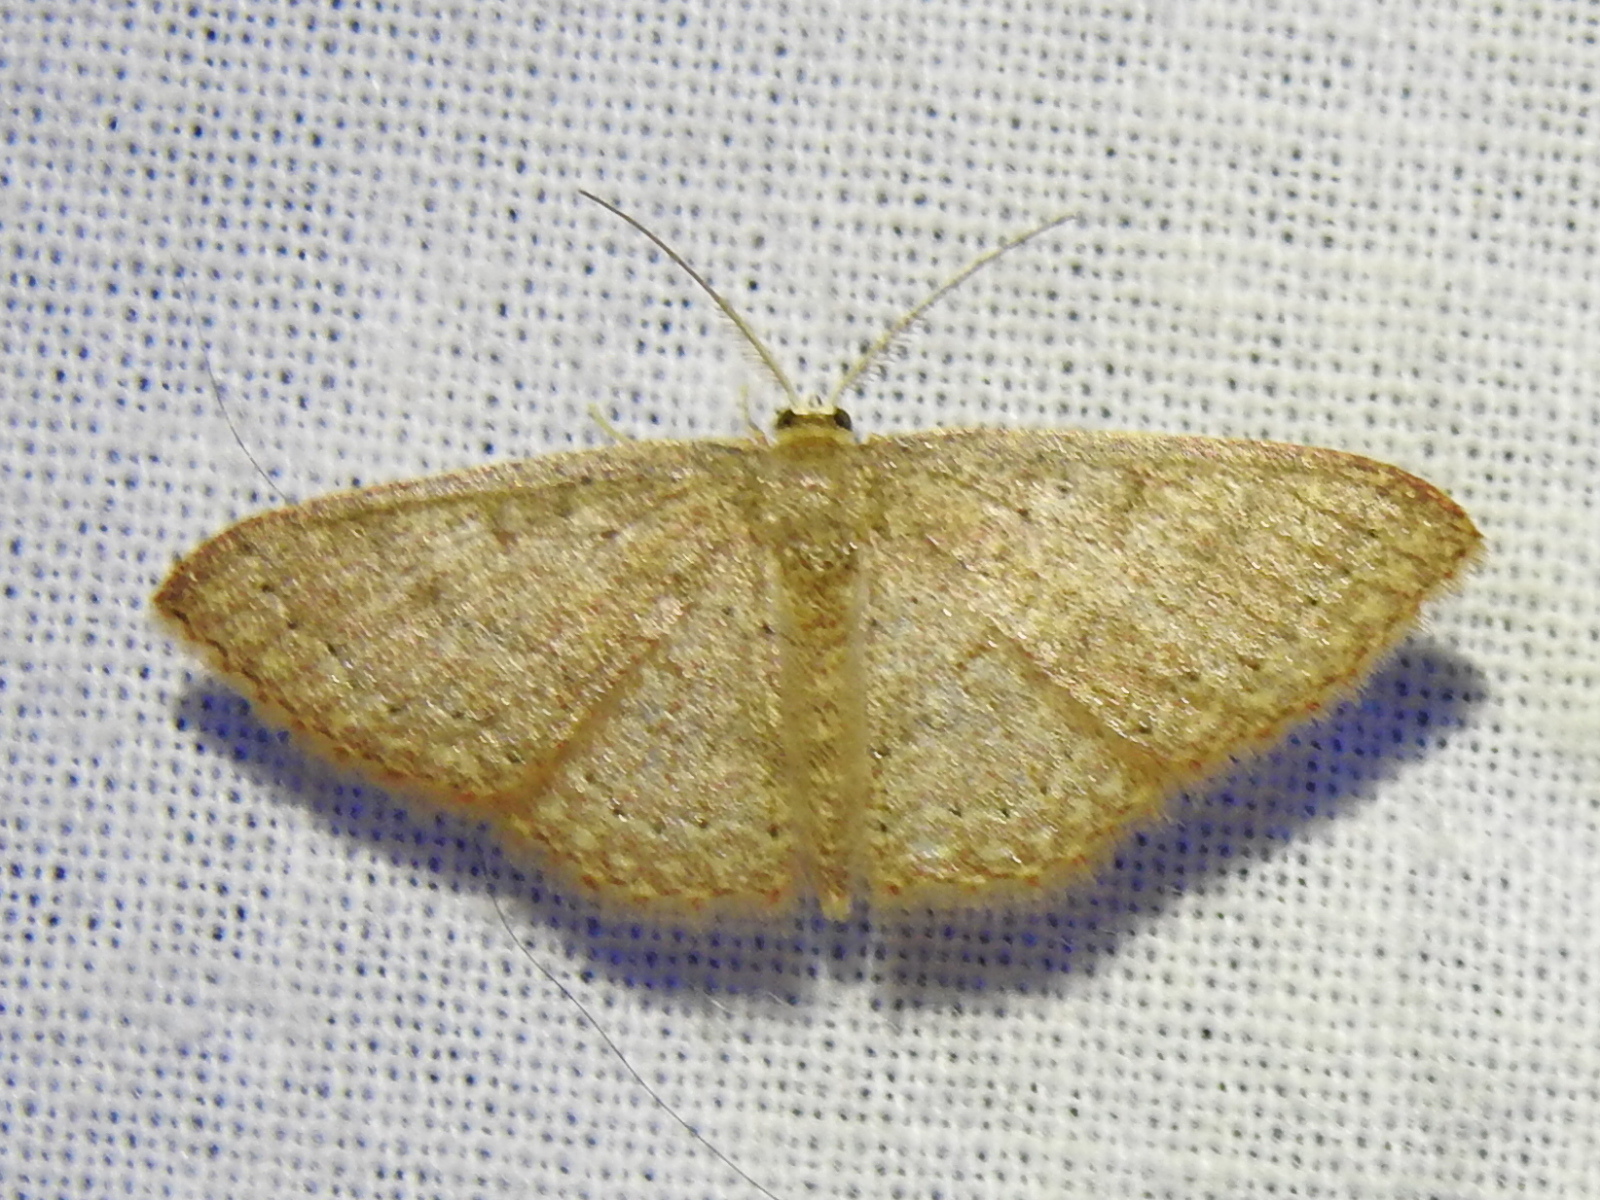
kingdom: Animalia
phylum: Arthropoda
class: Insecta
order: Lepidoptera
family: Geometridae
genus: Pleuroprucha
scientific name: Pleuroprucha insulsaria
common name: Common tan wave
